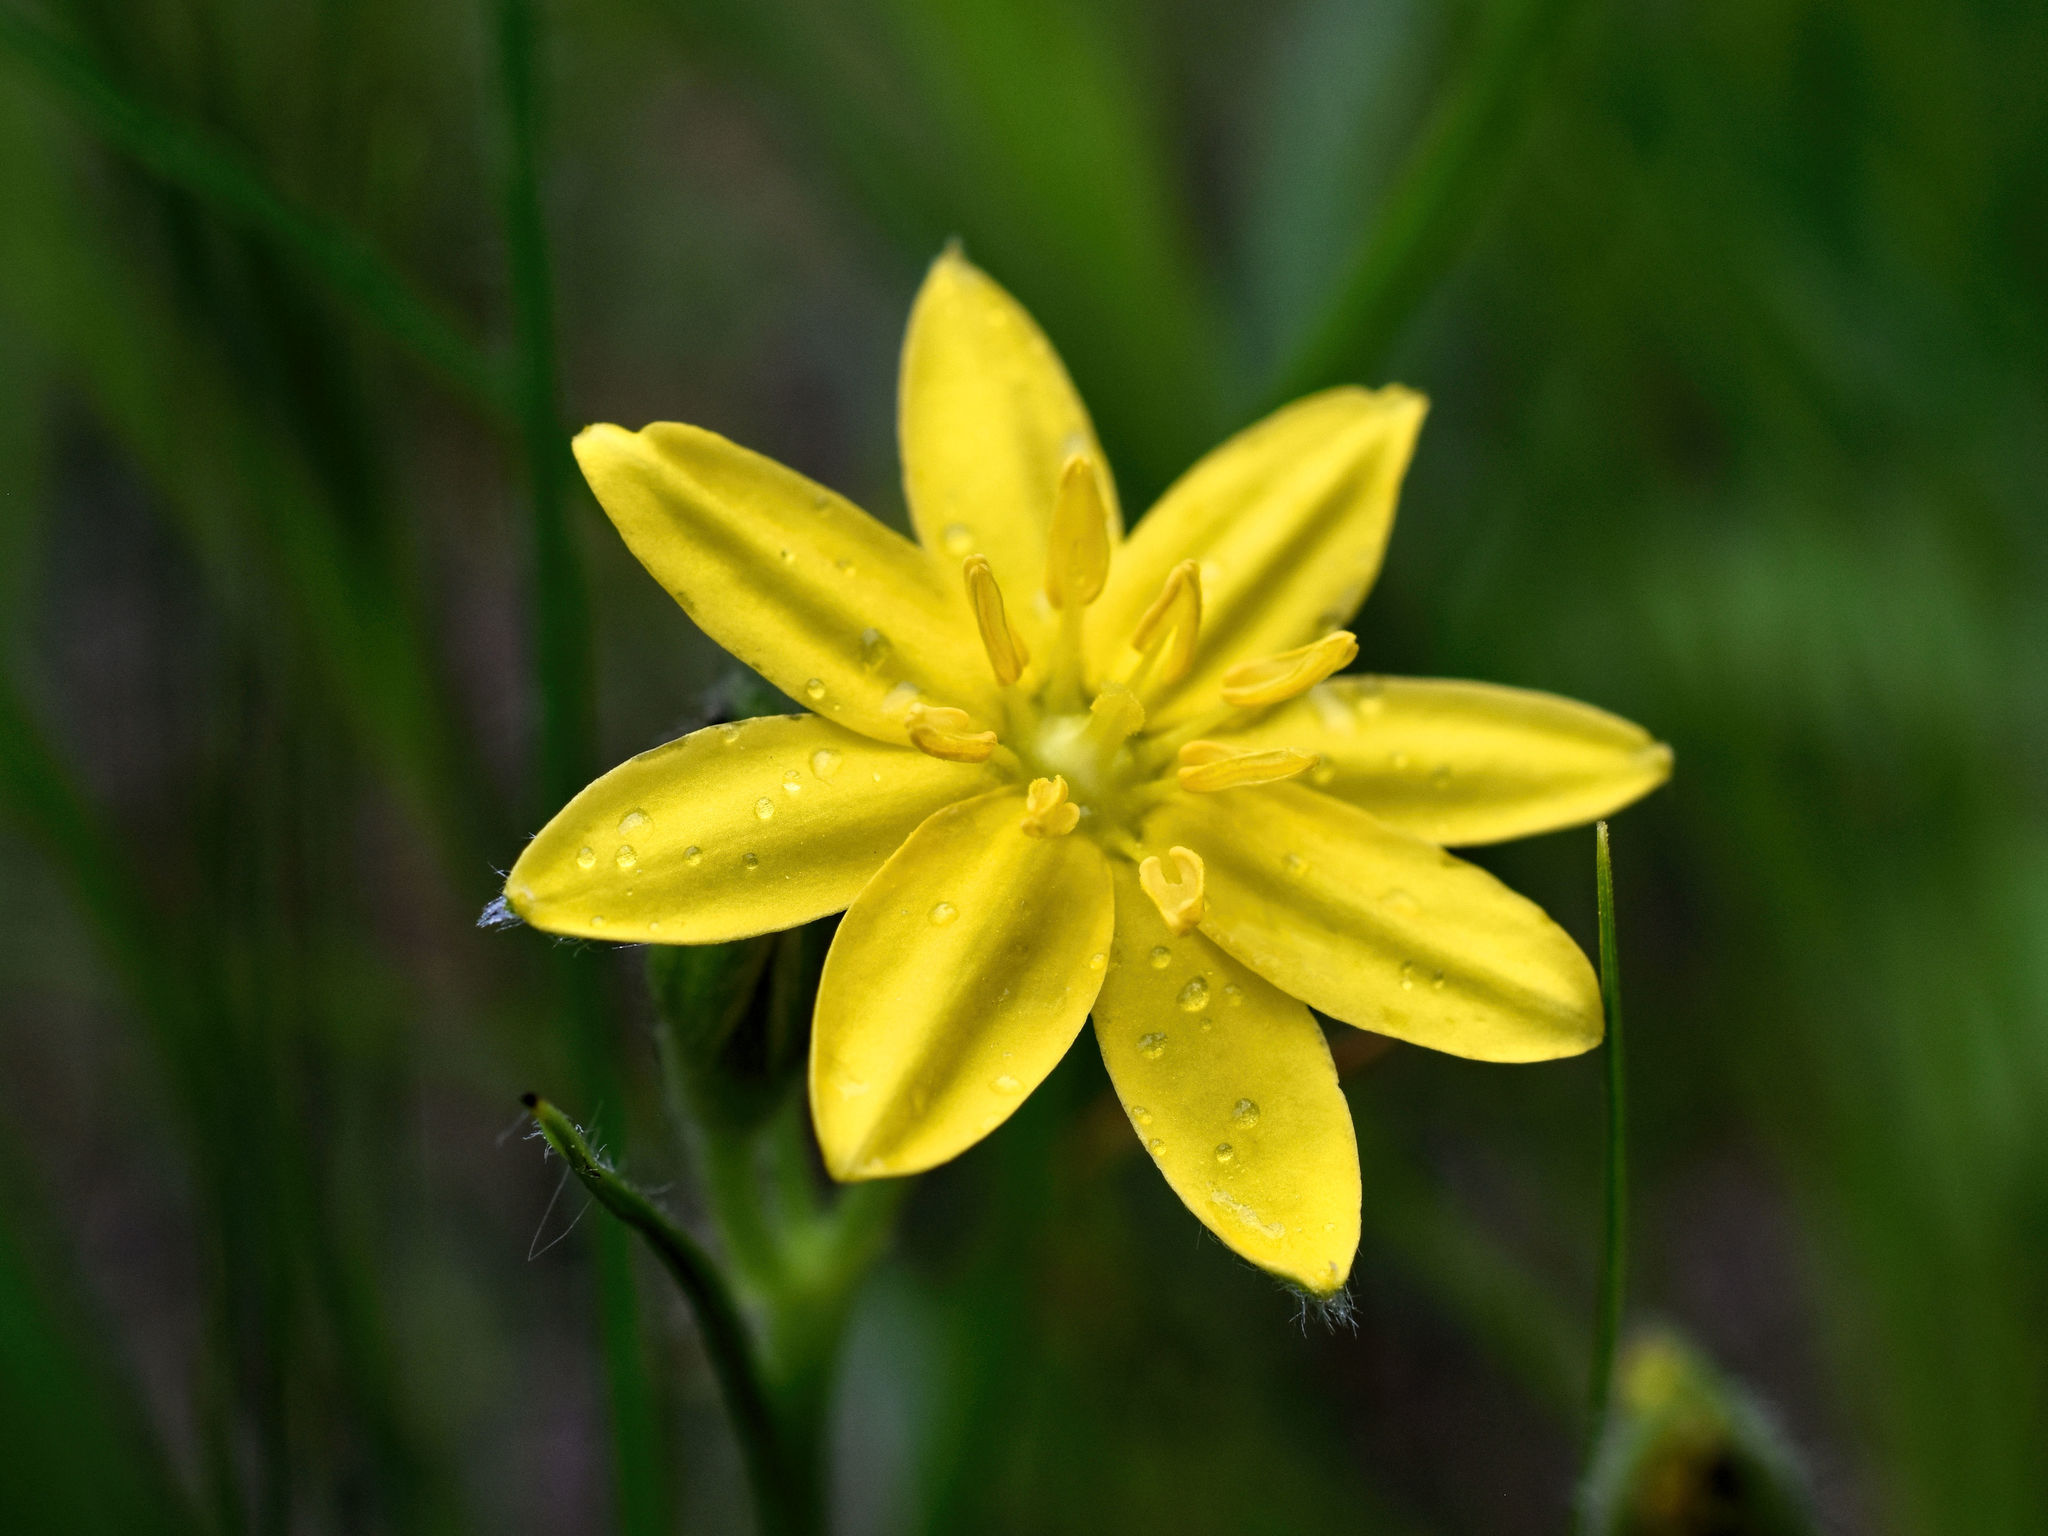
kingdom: Plantae
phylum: Tracheophyta
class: Liliopsida
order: Asparagales
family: Hypoxidaceae
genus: Hypoxis
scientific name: Hypoxis hirsuta
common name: Common goldstar
